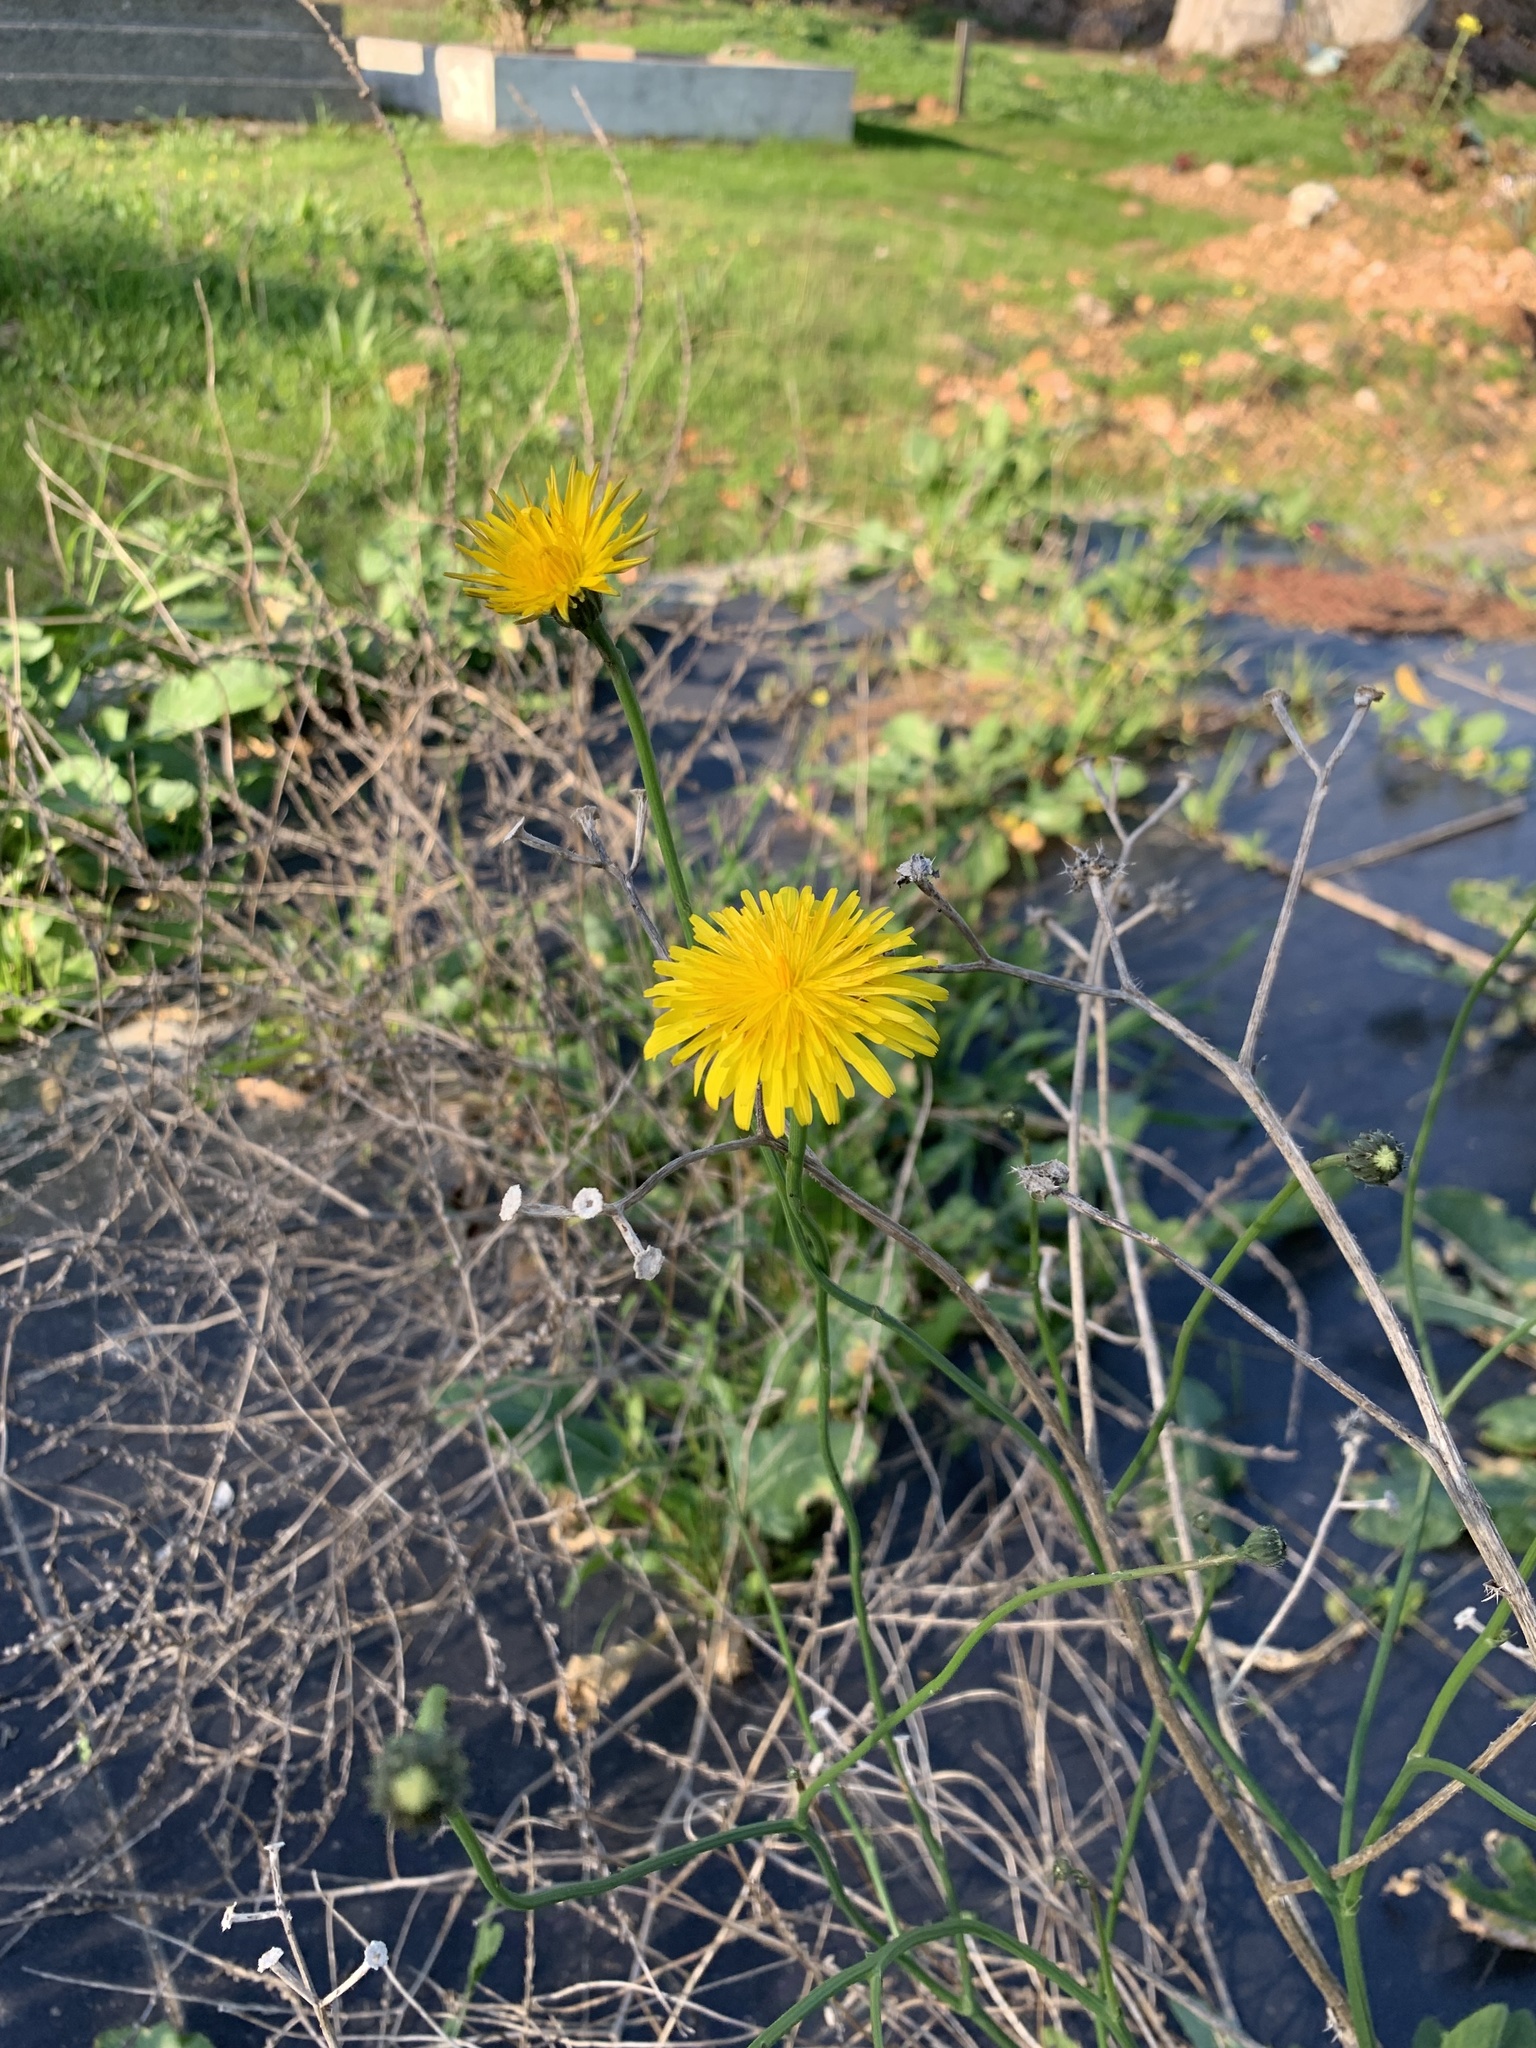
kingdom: Plantae
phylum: Tracheophyta
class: Magnoliopsida
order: Asterales
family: Asteraceae
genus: Hypochaeris
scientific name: Hypochaeris radicata
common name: Flatweed
